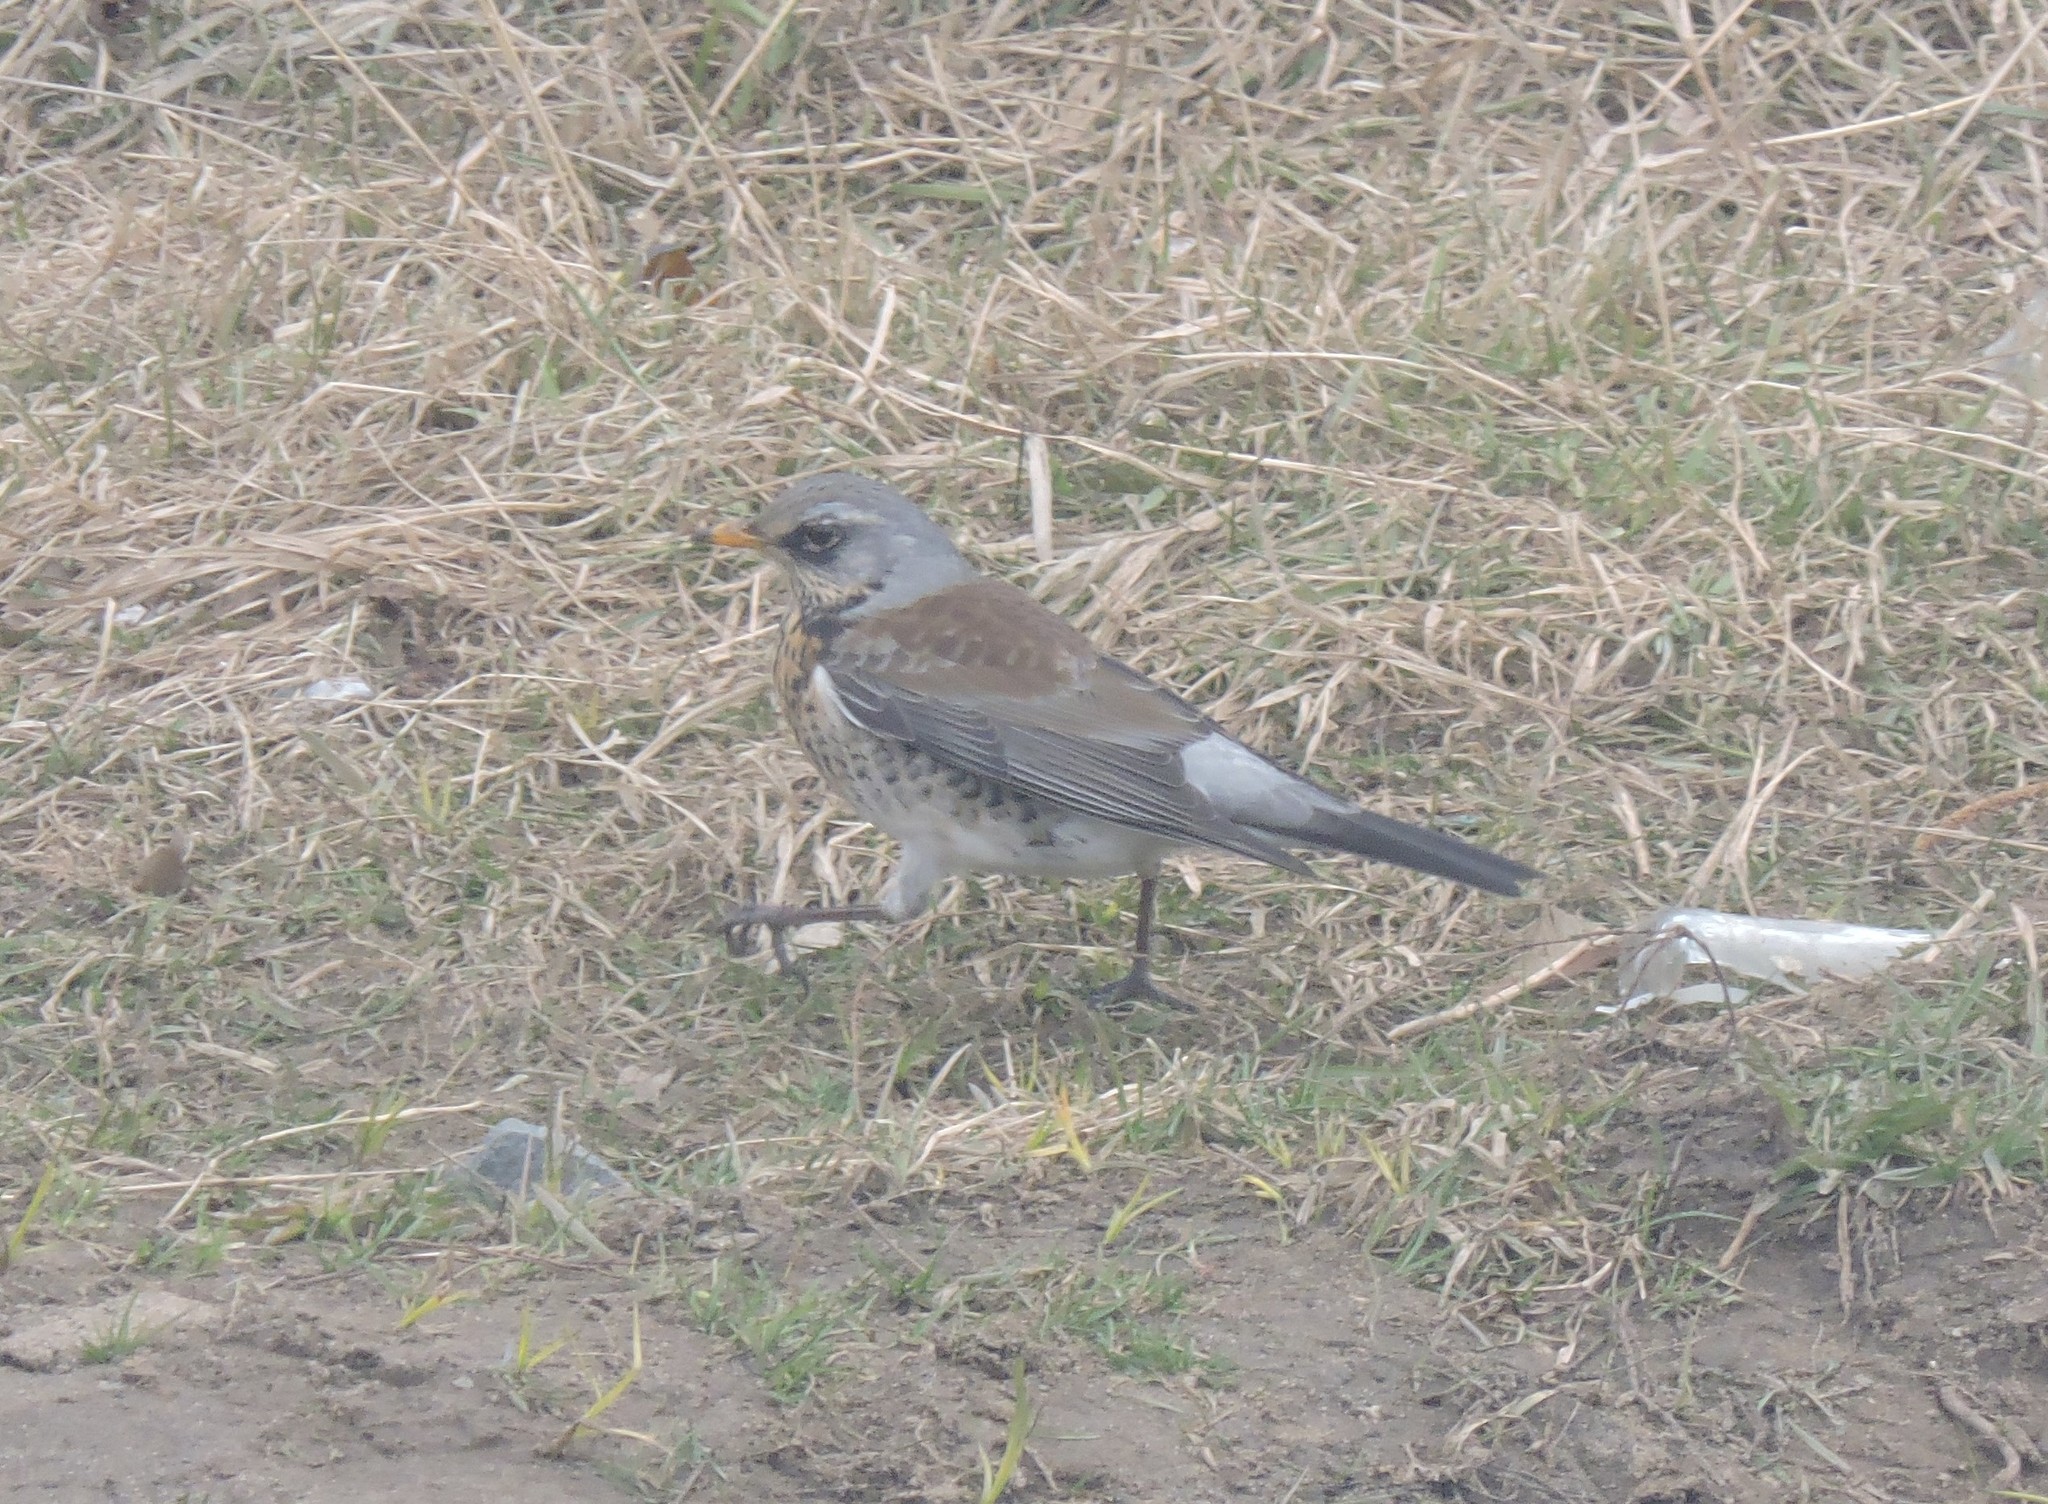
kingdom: Animalia
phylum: Chordata
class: Aves
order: Passeriformes
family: Turdidae
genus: Turdus
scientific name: Turdus pilaris
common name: Fieldfare
